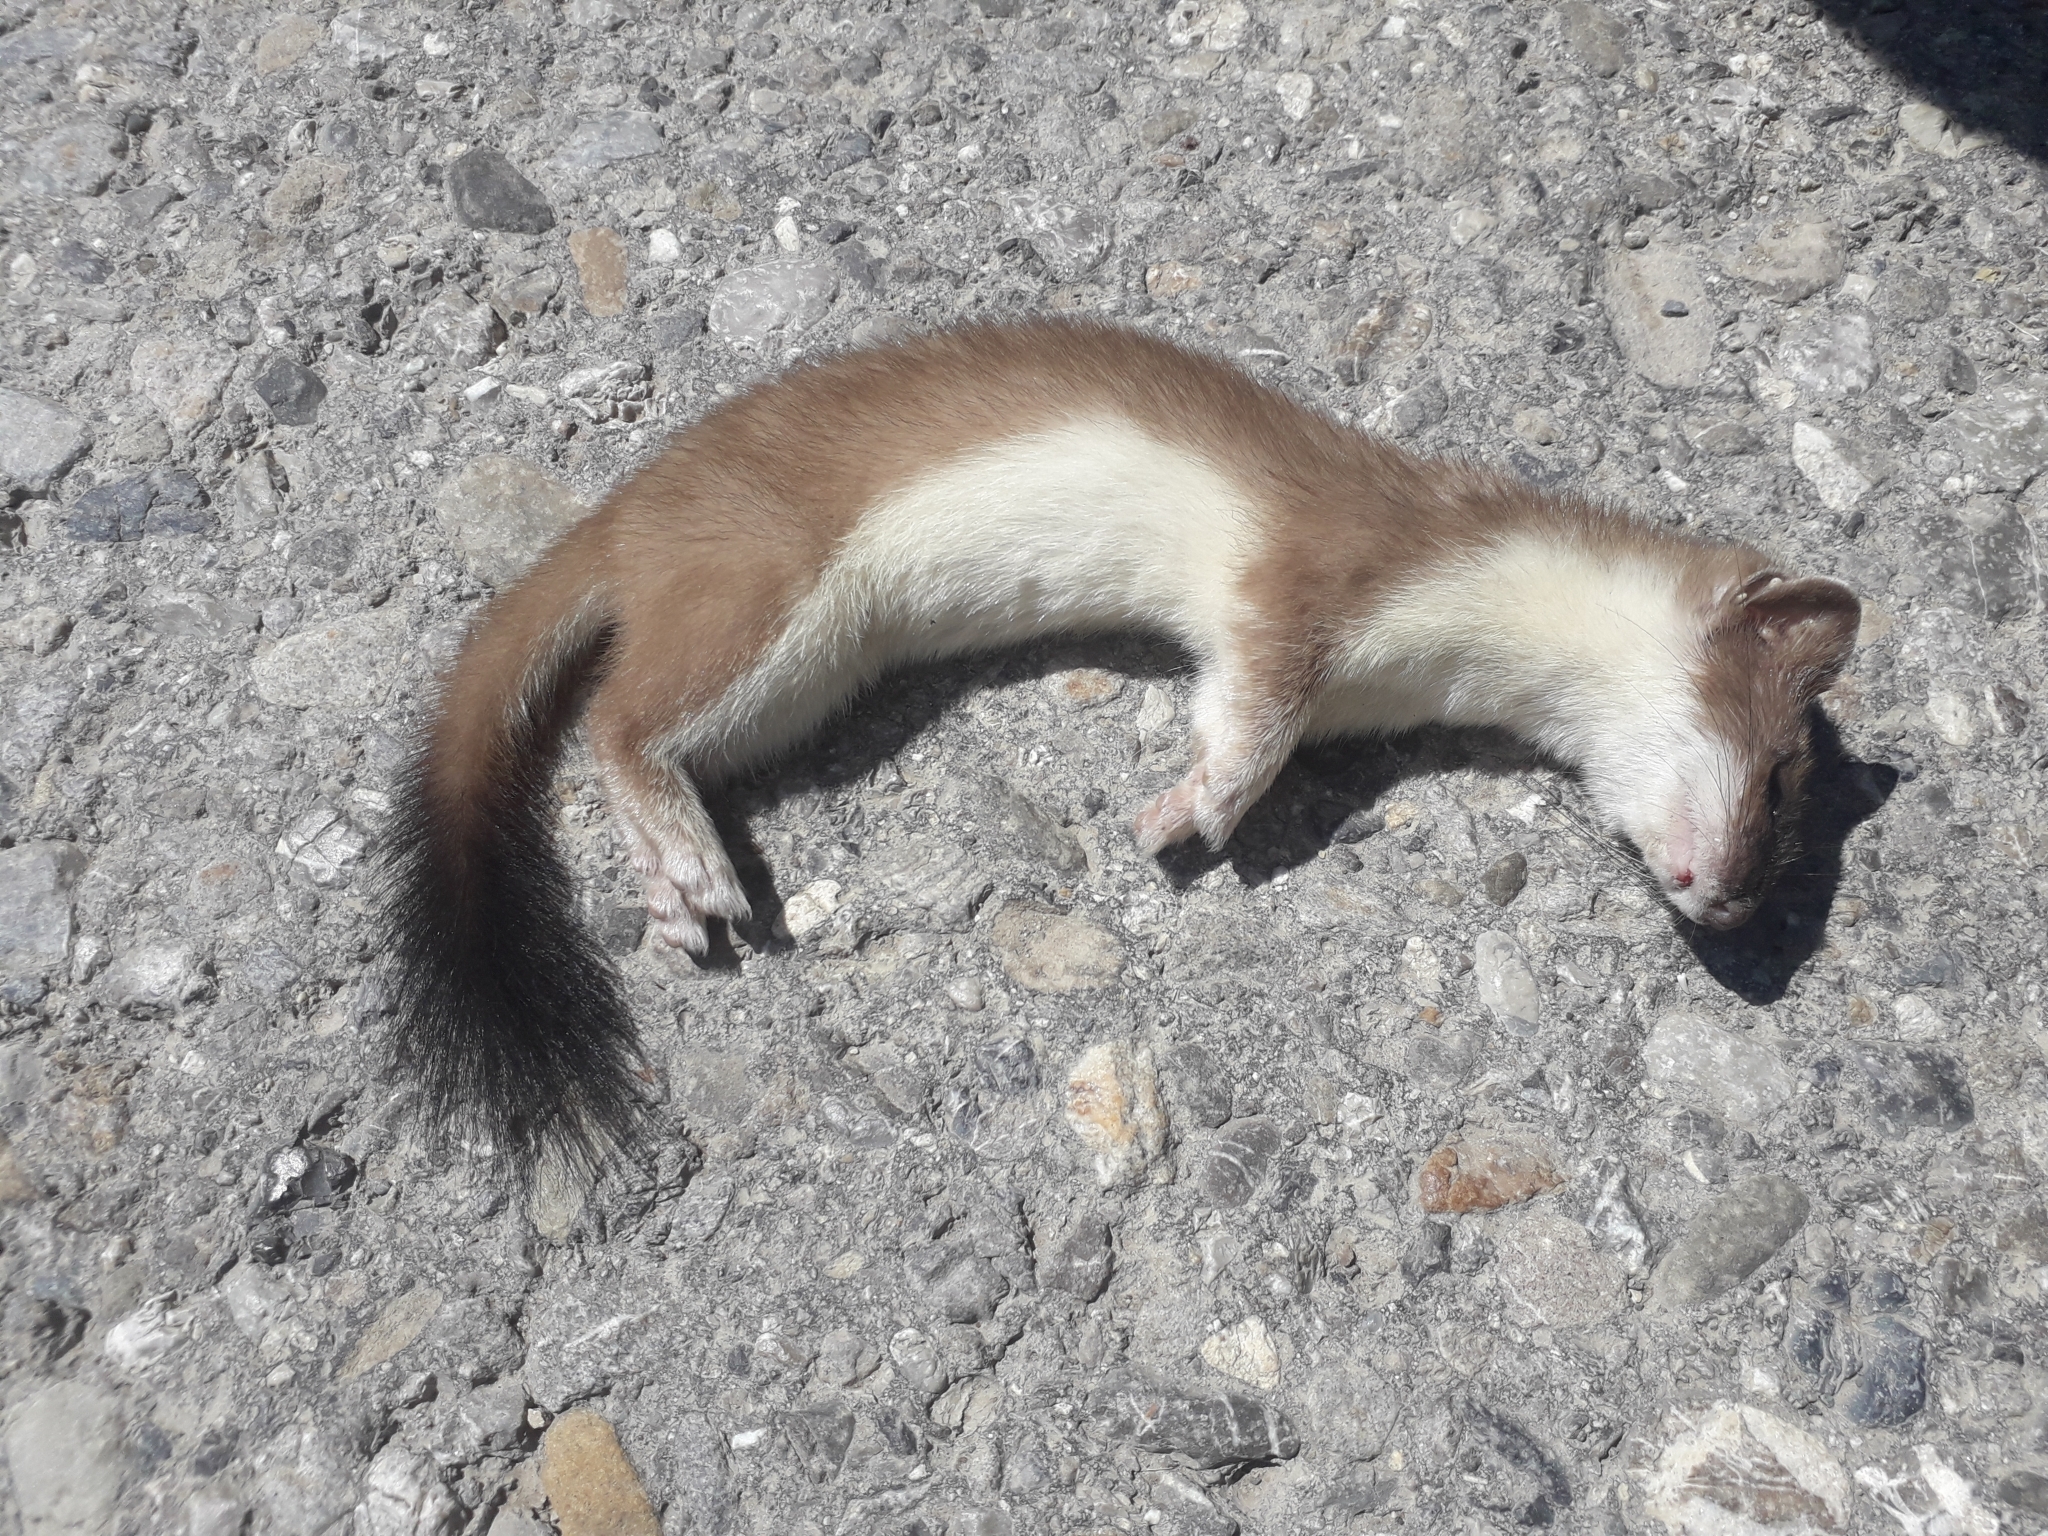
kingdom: Animalia
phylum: Chordata
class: Mammalia
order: Carnivora
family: Mustelidae
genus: Mustela
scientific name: Mustela erminea
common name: Stoat
